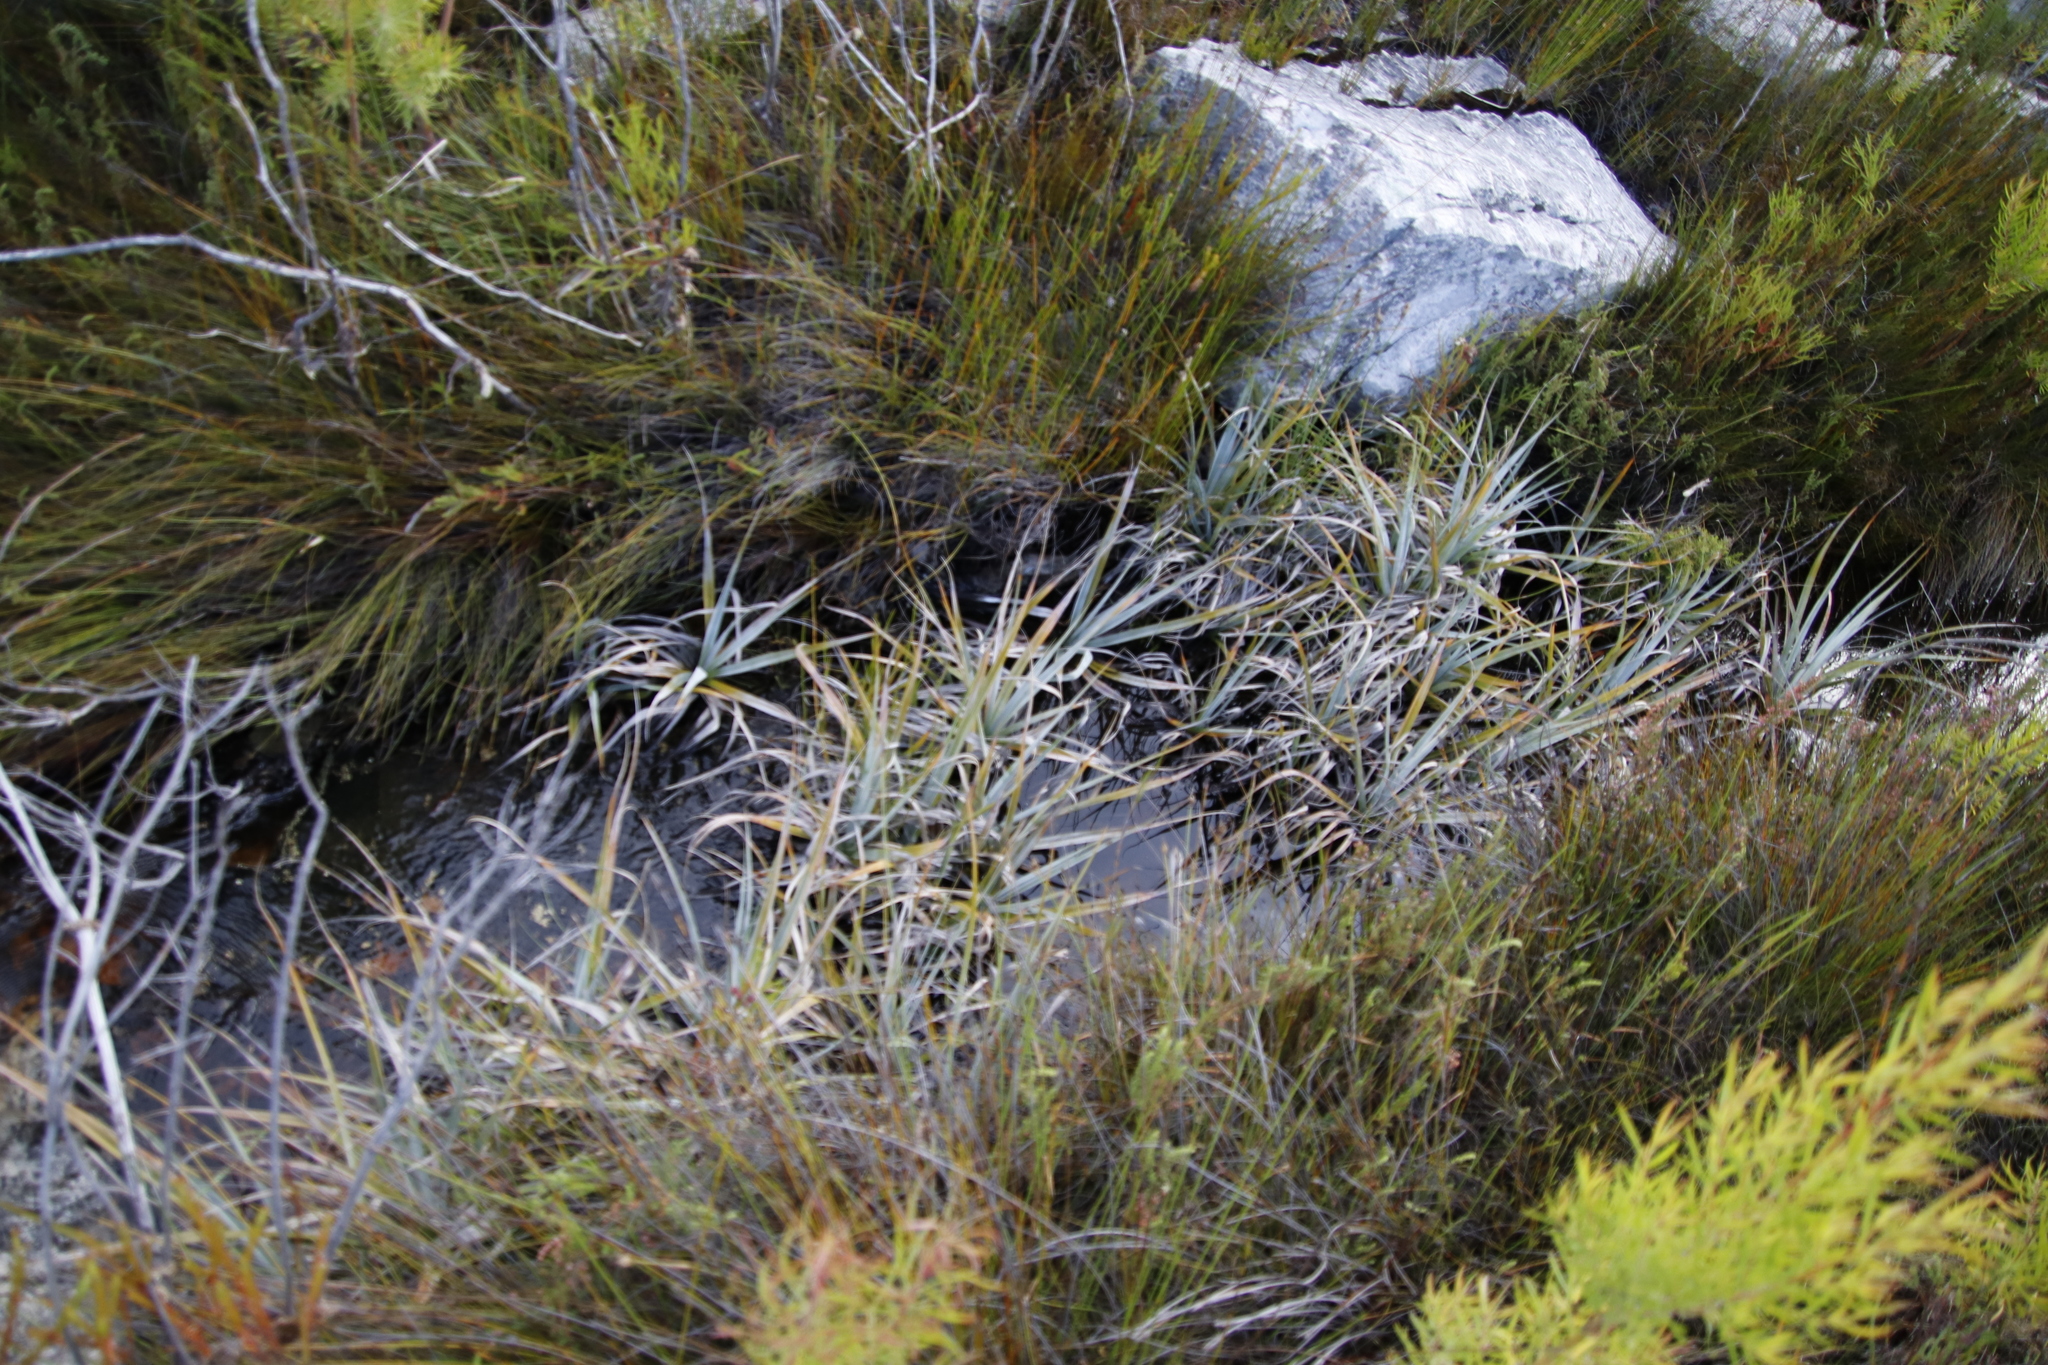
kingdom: Plantae
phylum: Tracheophyta
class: Liliopsida
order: Poales
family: Thurniaceae
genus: Prionium
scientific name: Prionium serratum
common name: Palmiet
